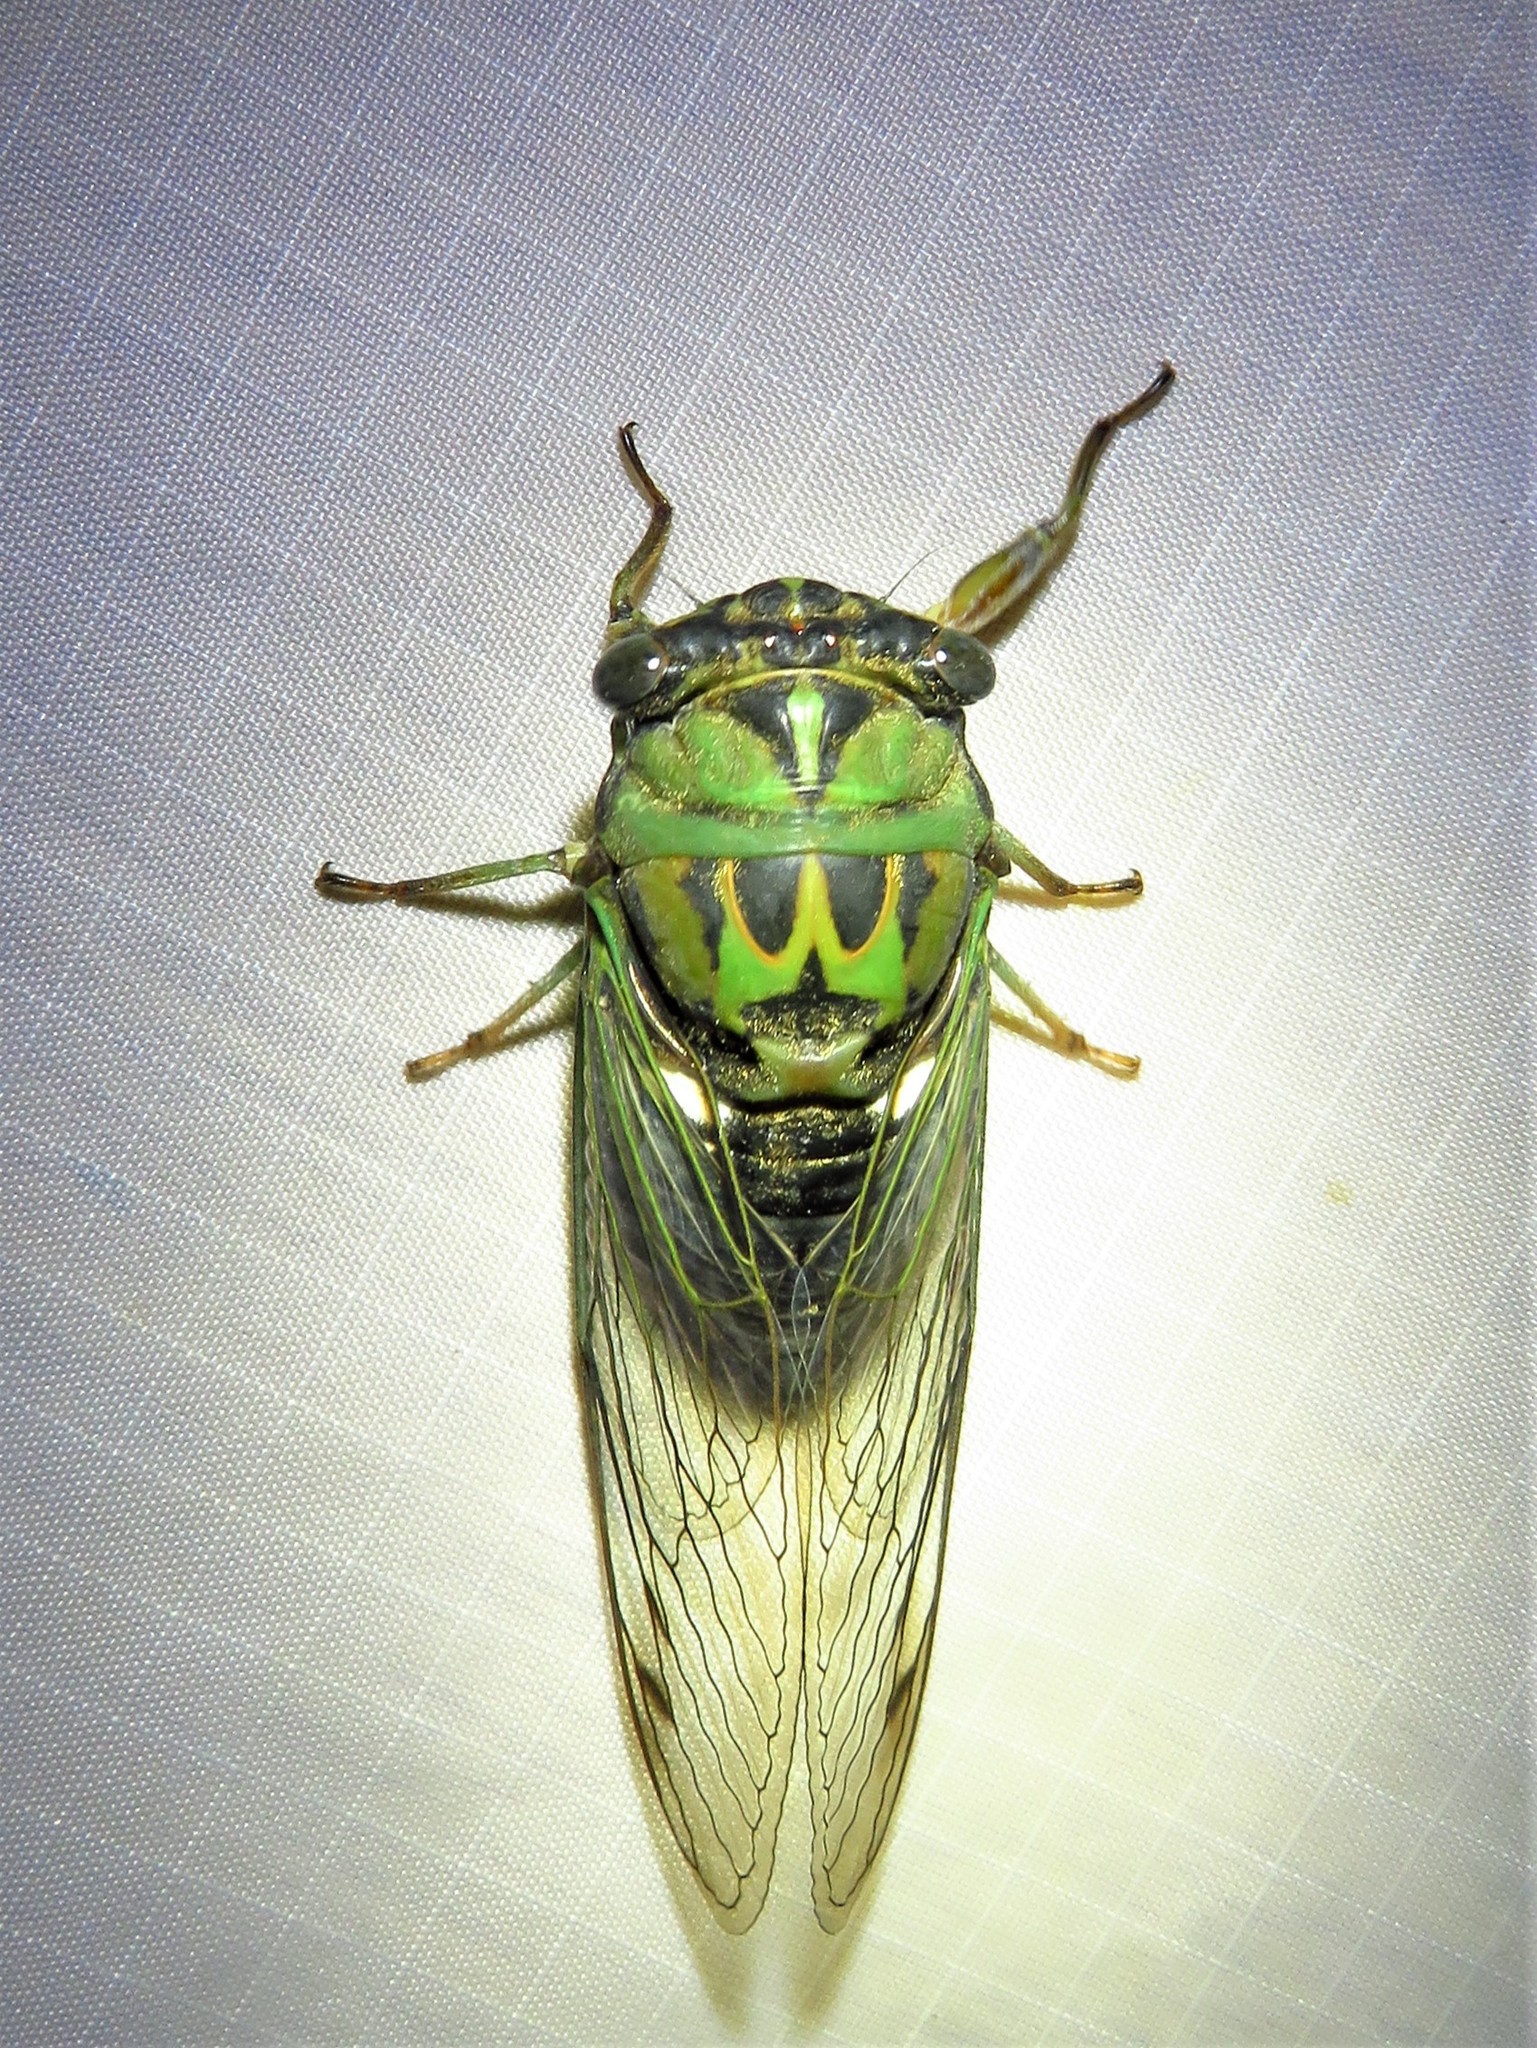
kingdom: Animalia
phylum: Arthropoda
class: Insecta
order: Hemiptera
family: Cicadidae
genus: Neotibicen
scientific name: Neotibicen pruinosus
